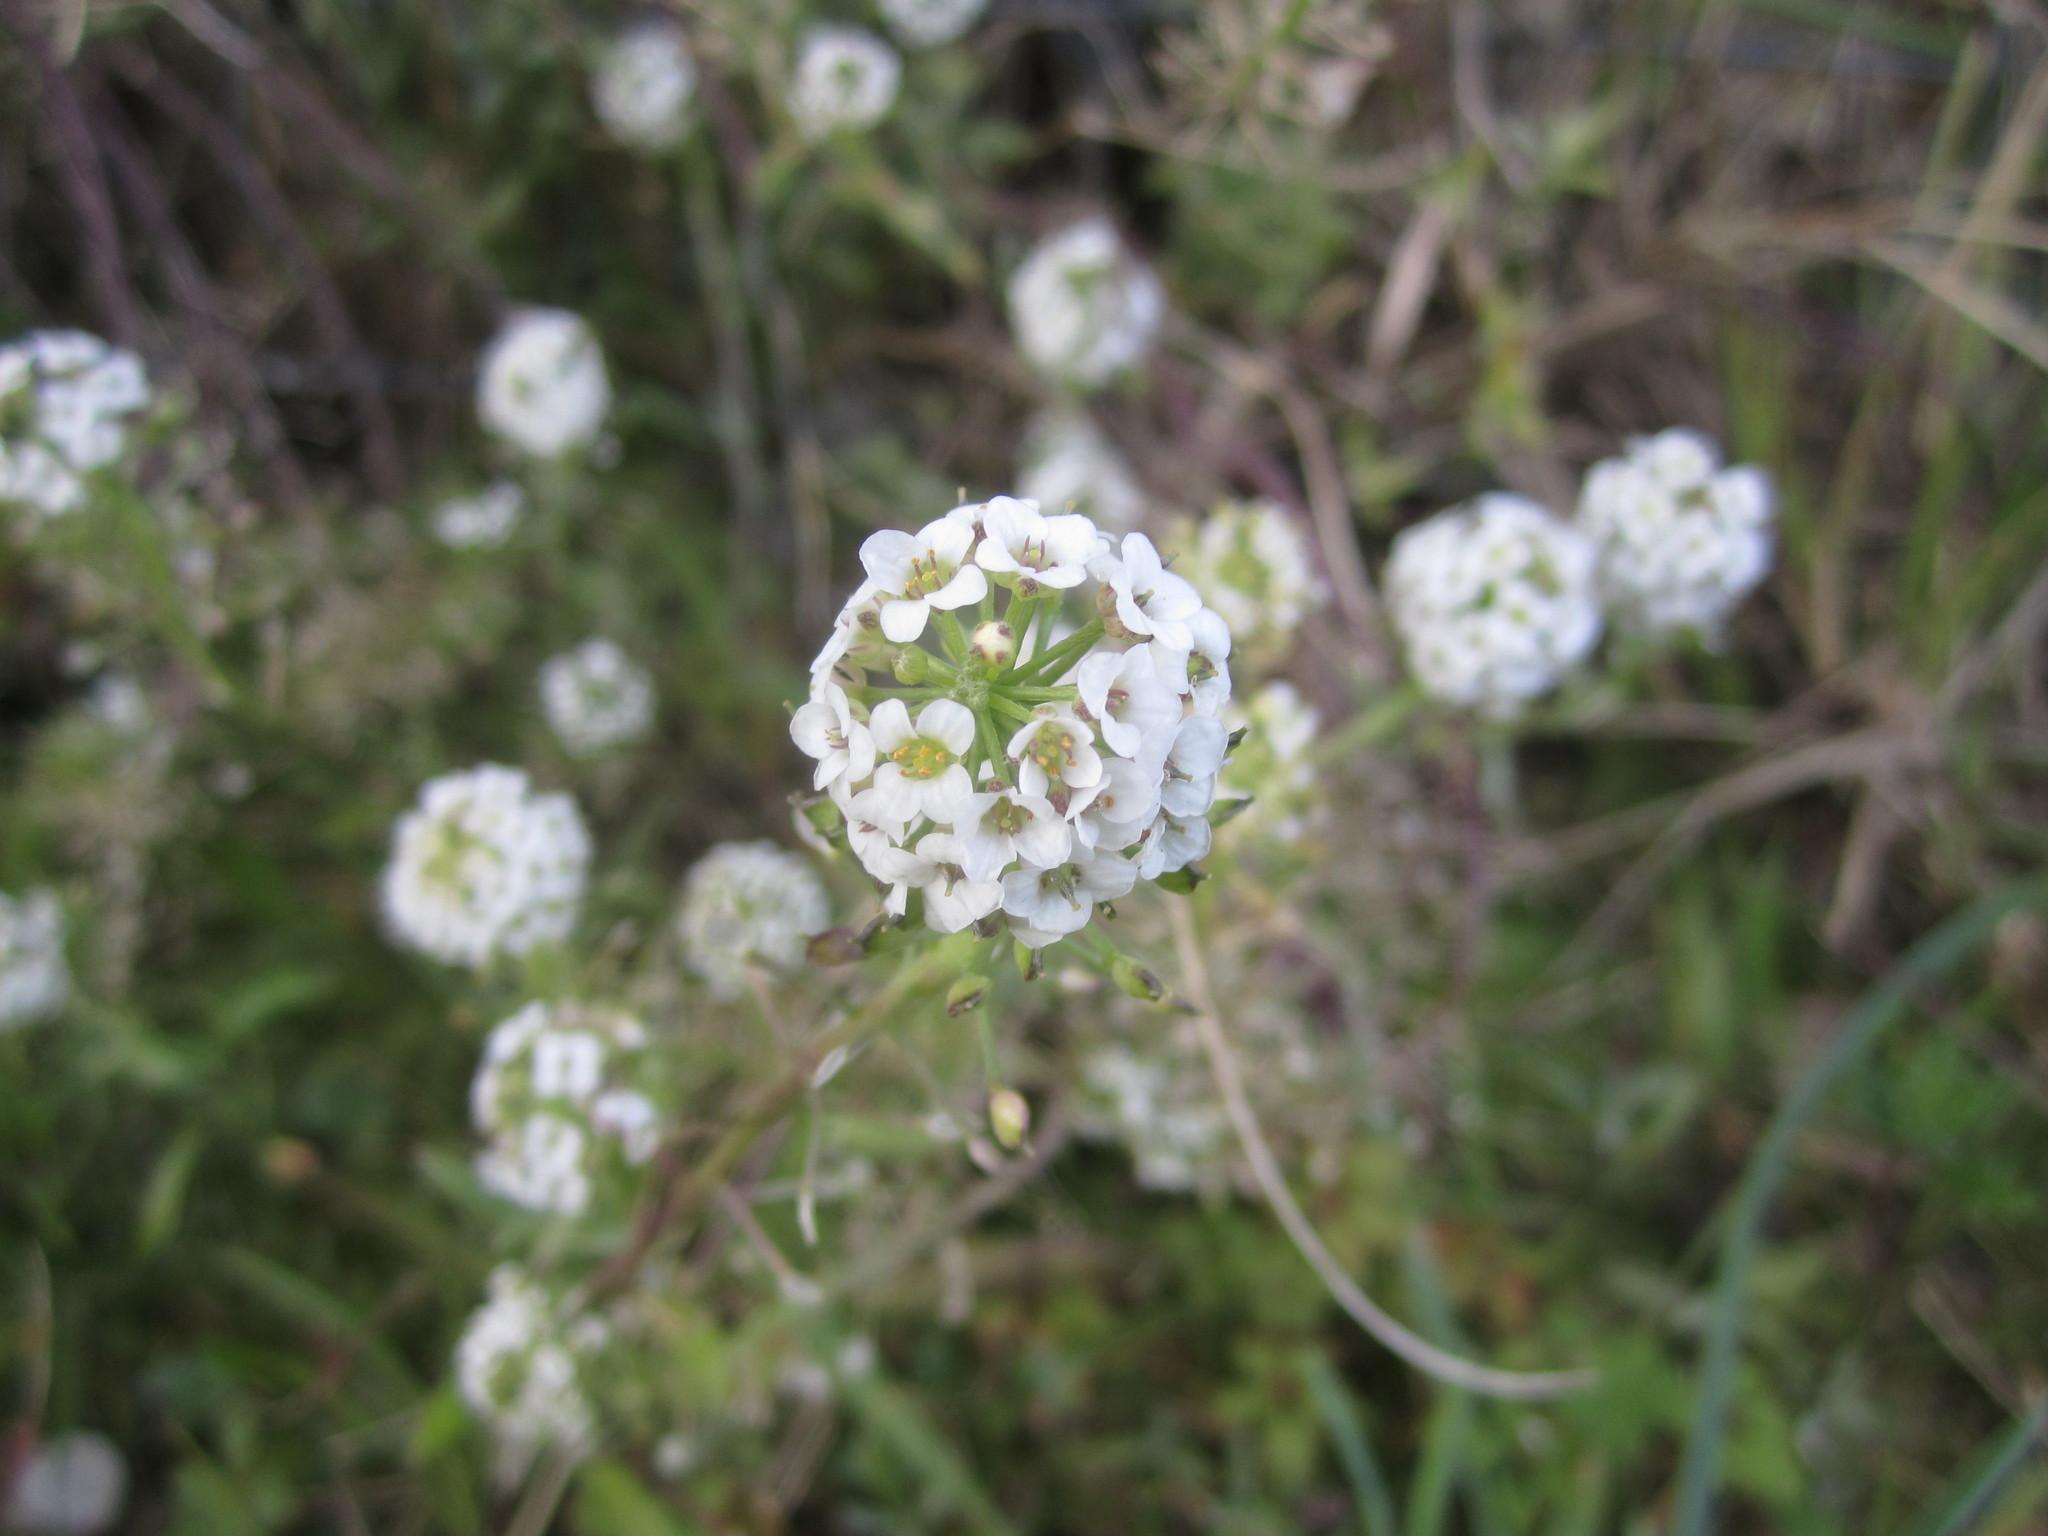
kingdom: Plantae
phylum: Tracheophyta
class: Magnoliopsida
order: Brassicales
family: Brassicaceae
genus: Lobularia
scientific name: Lobularia maritima
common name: Sweet alison
